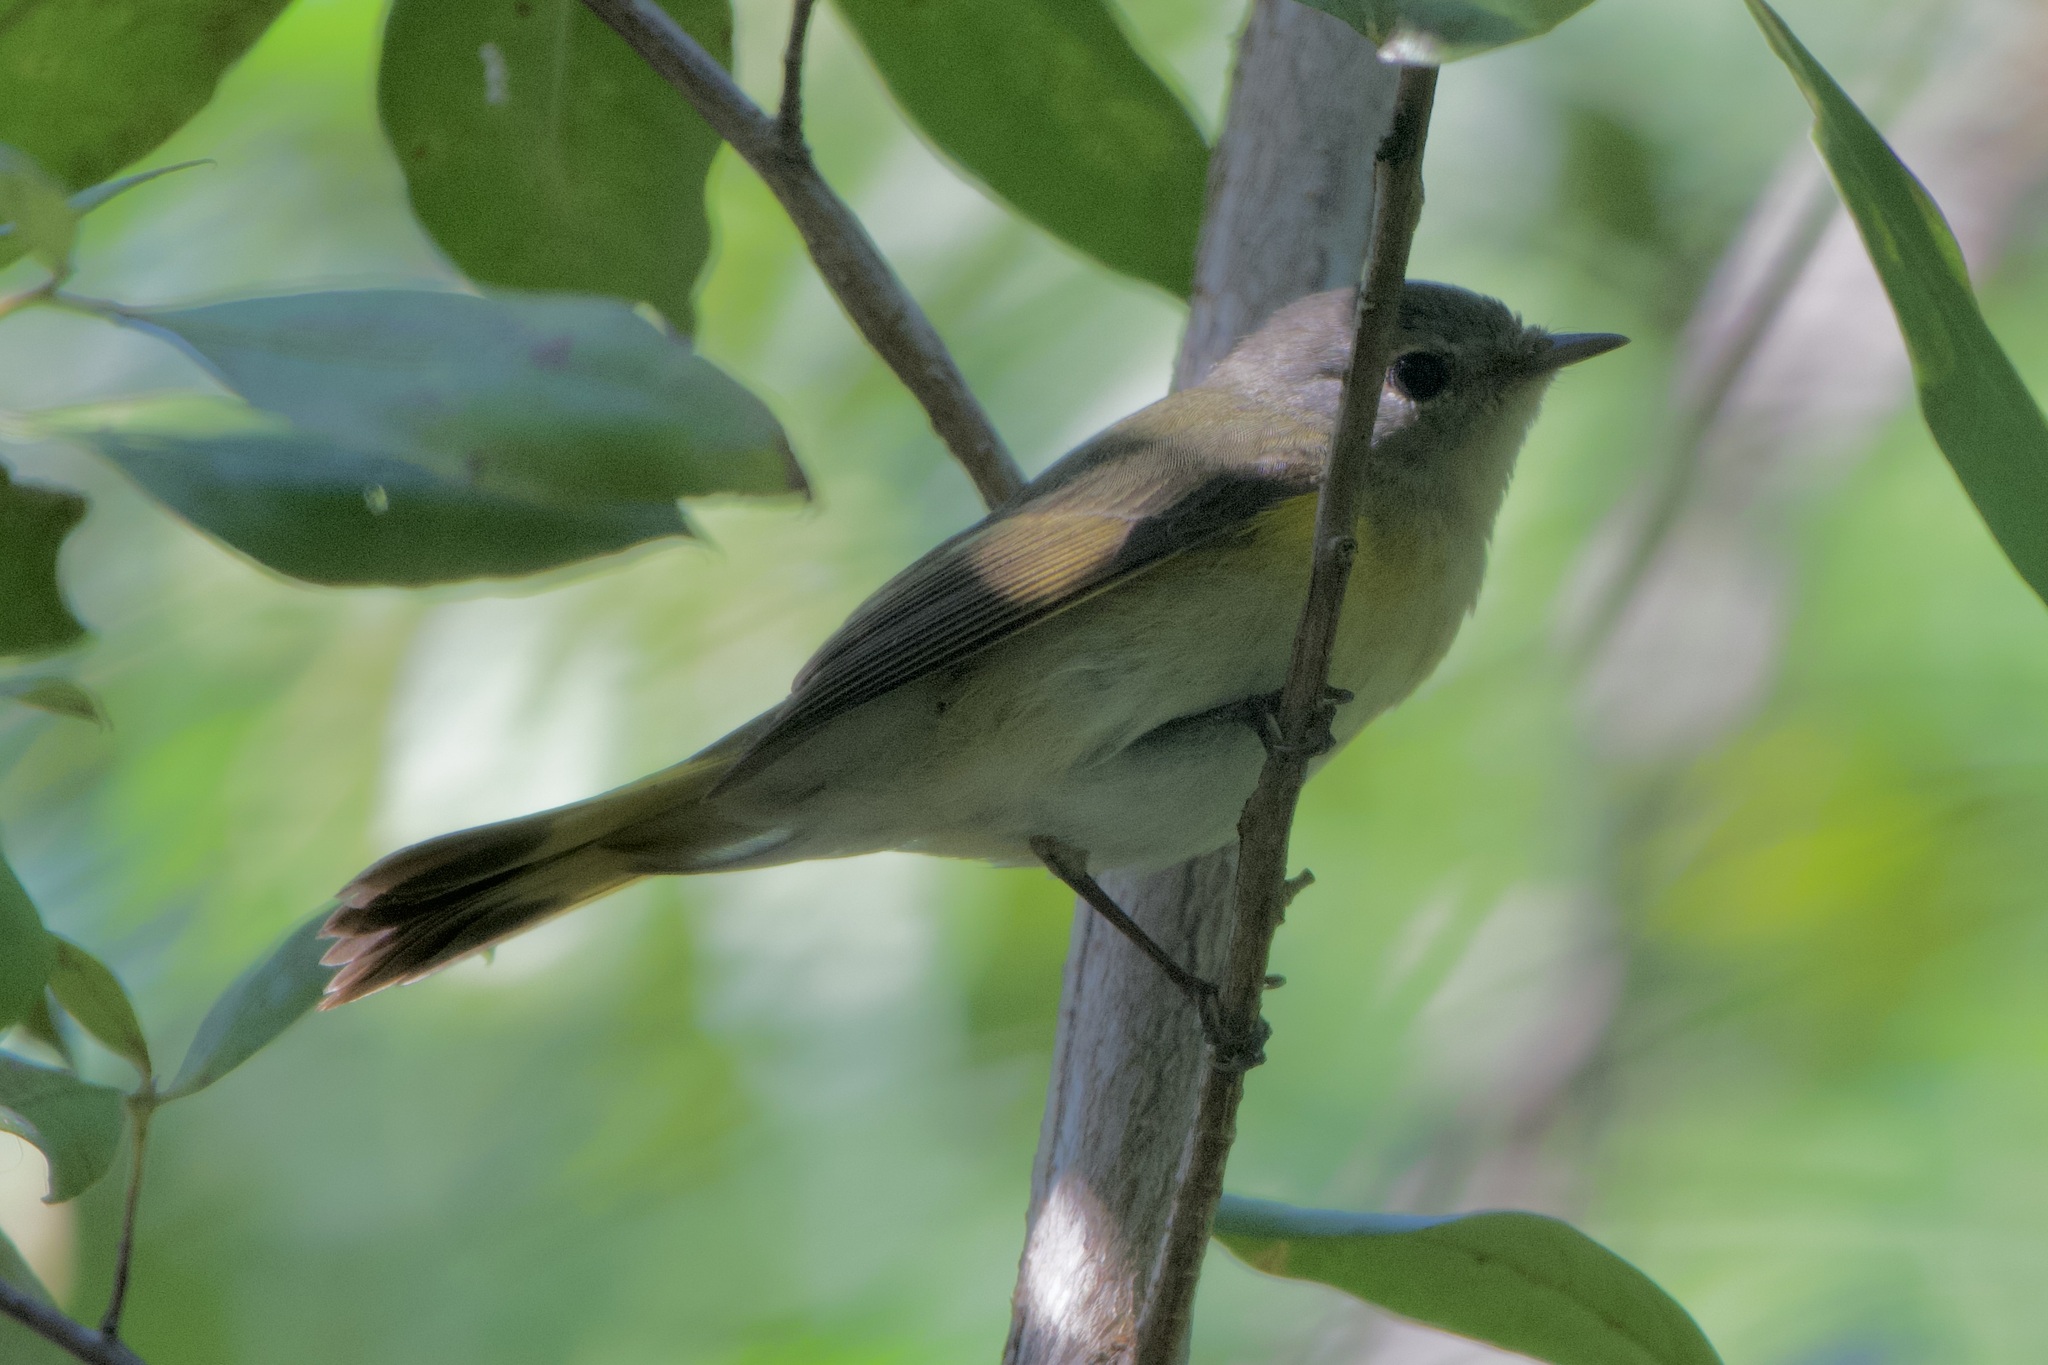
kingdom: Animalia
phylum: Chordata
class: Aves
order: Passeriformes
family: Parulidae
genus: Setophaga
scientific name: Setophaga ruticilla
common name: American redstart
